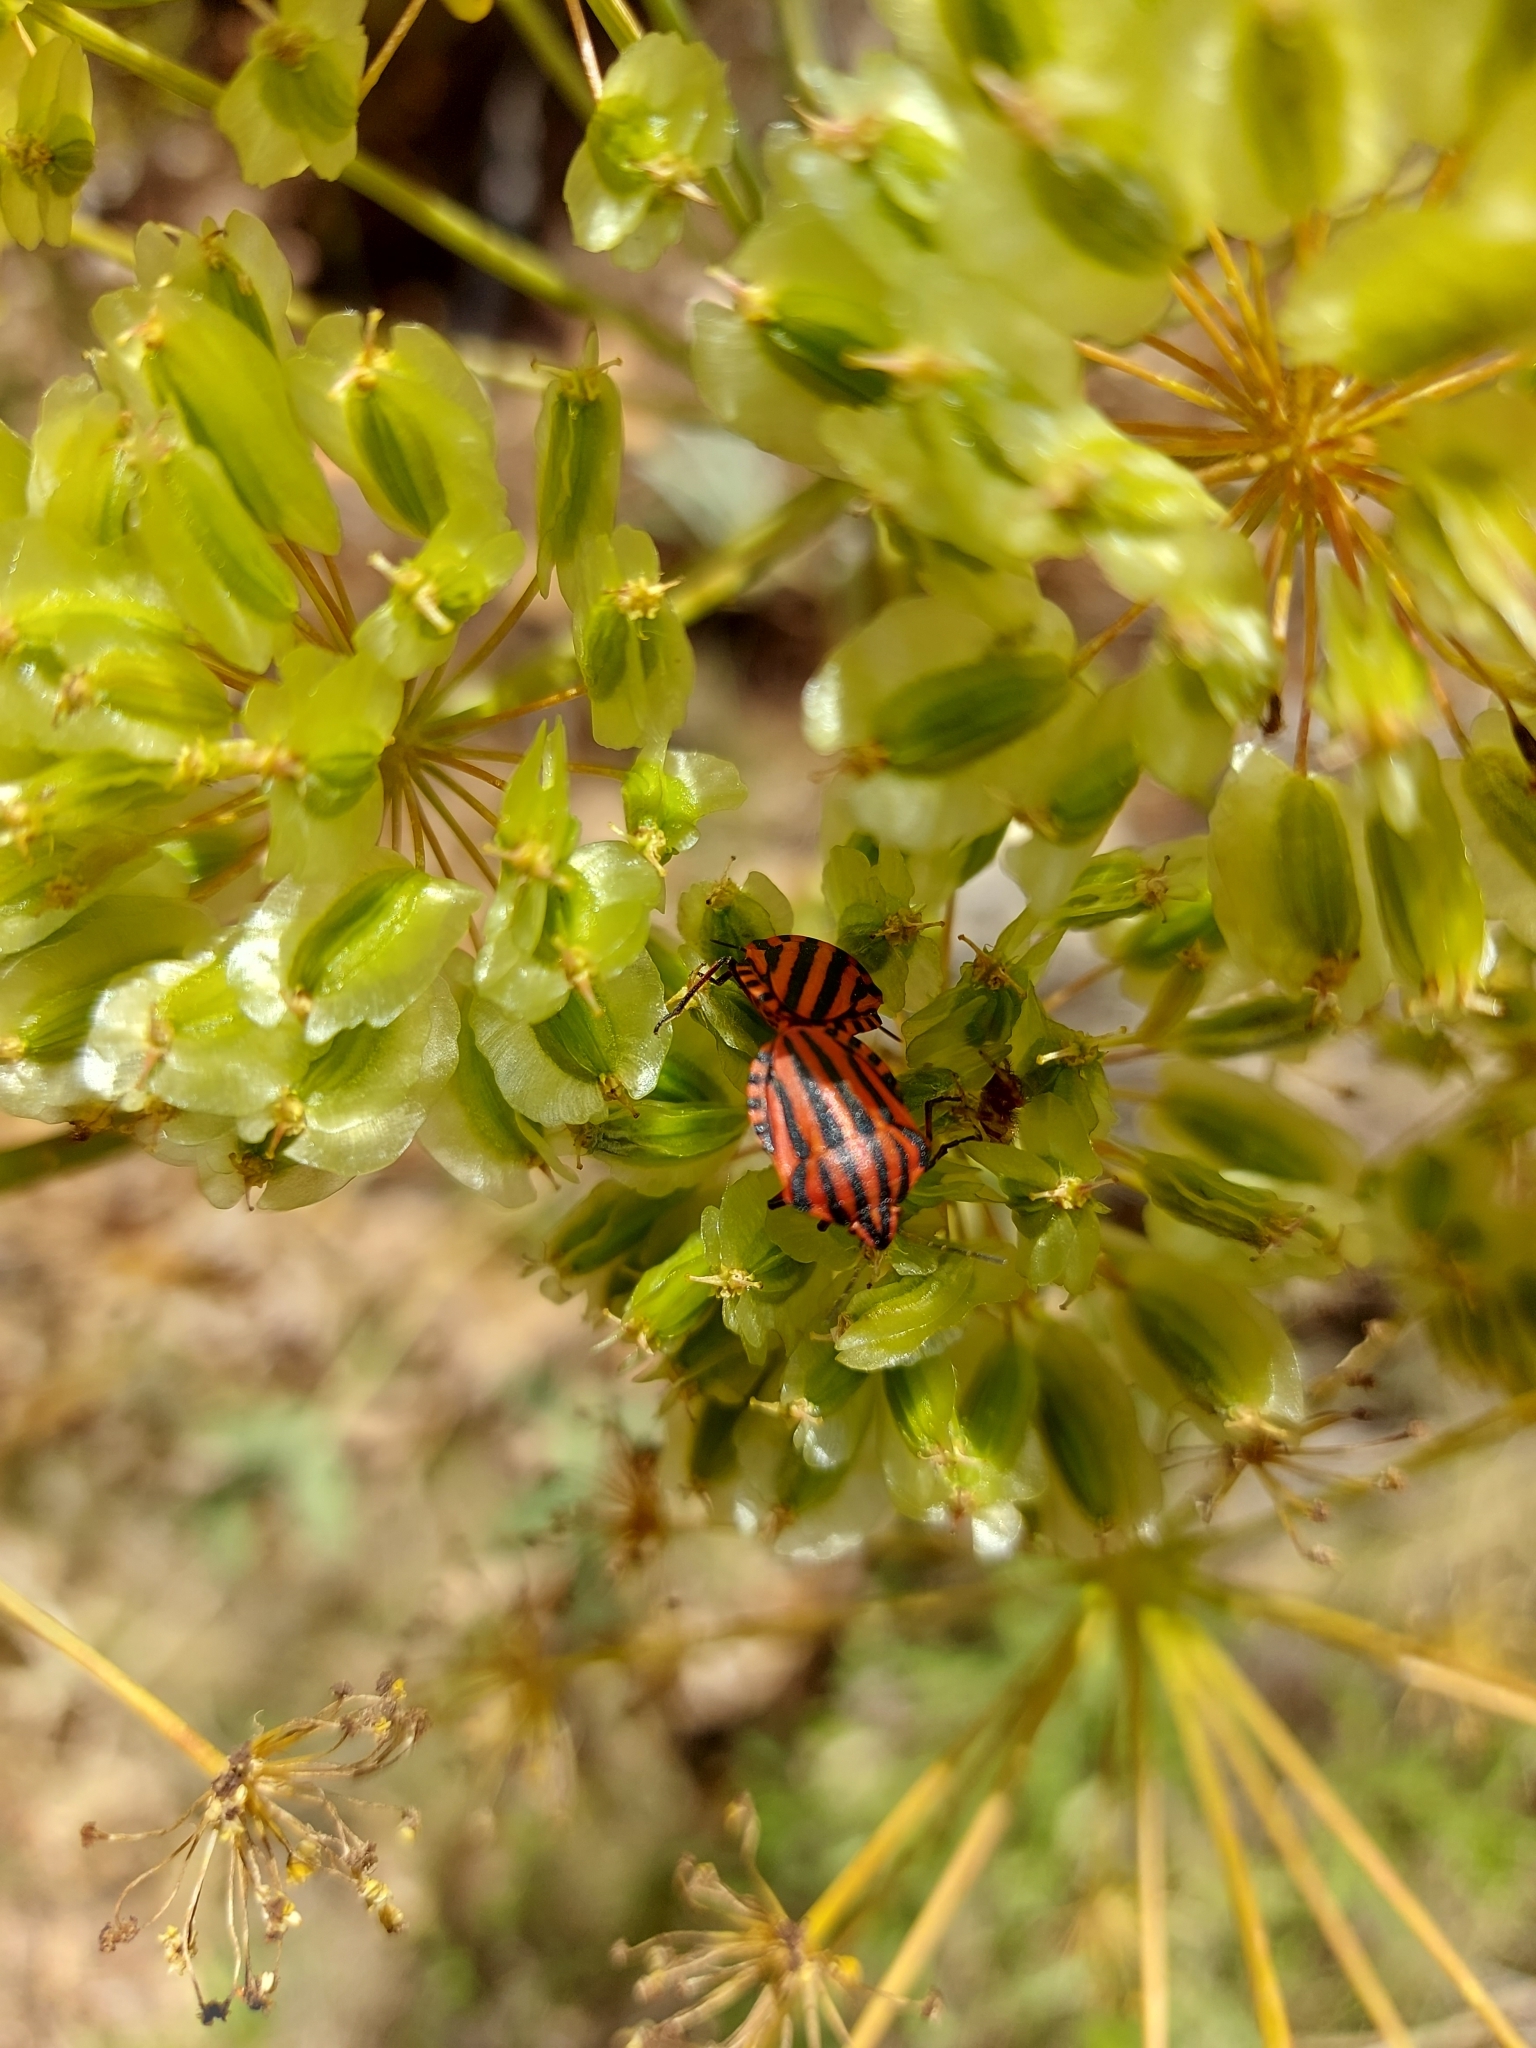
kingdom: Animalia
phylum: Arthropoda
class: Insecta
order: Hemiptera
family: Pentatomidae
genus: Graphosoma
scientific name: Graphosoma italicum
